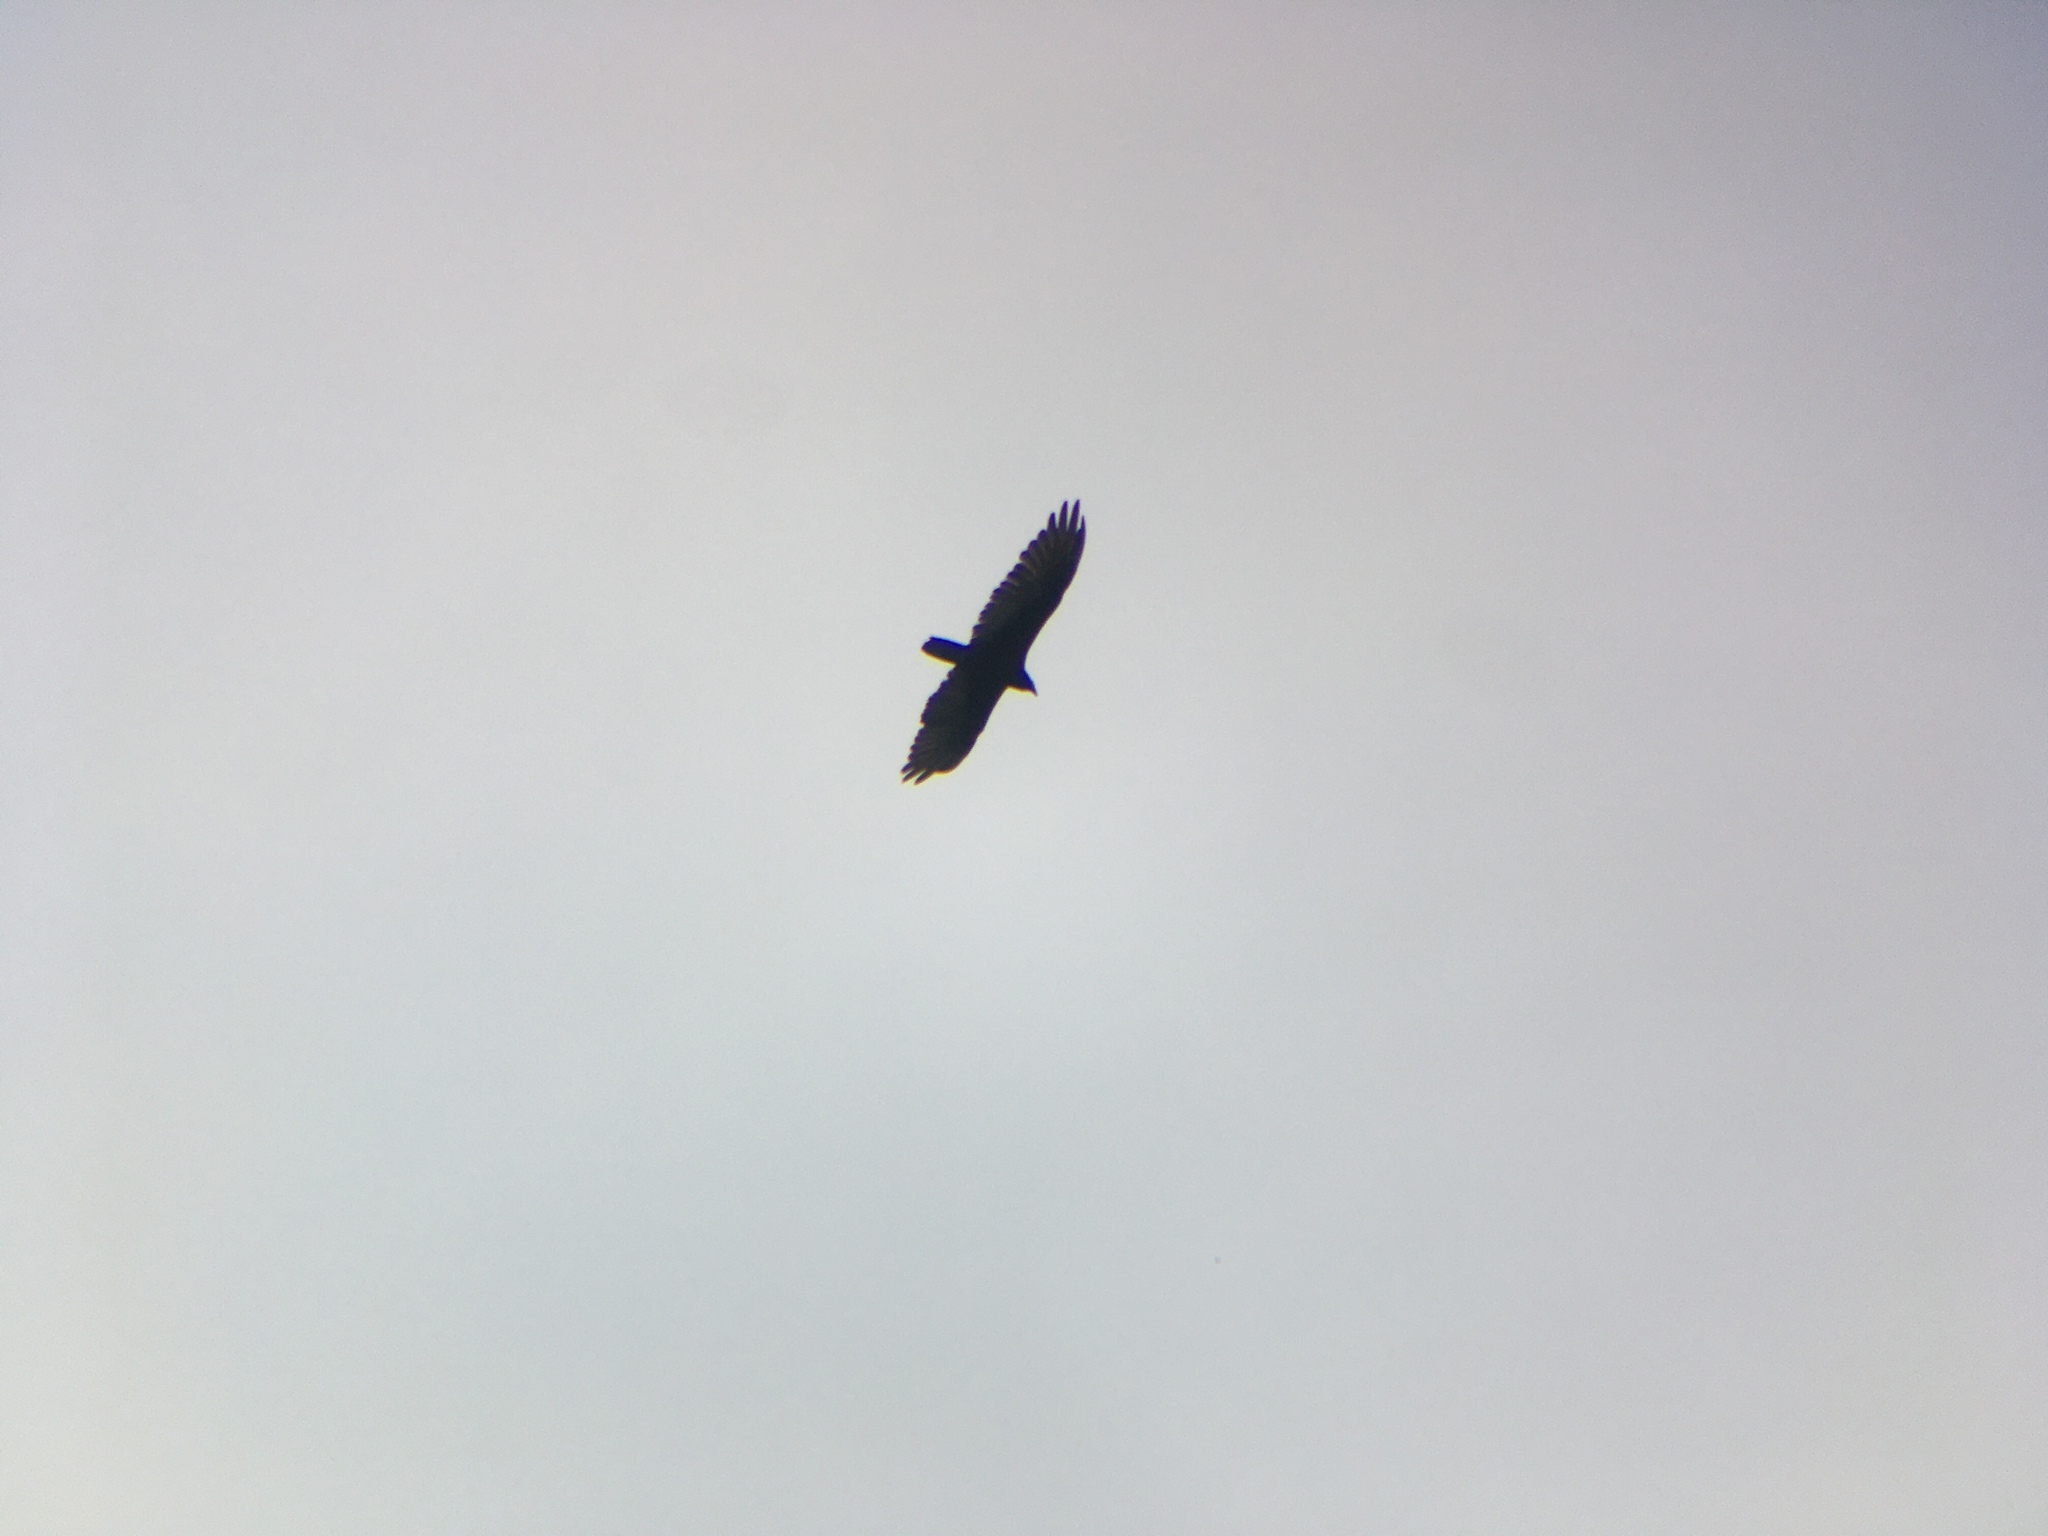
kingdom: Animalia
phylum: Chordata
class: Aves
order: Accipitriformes
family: Cathartidae
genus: Cathartes
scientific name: Cathartes aura
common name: Turkey vulture
